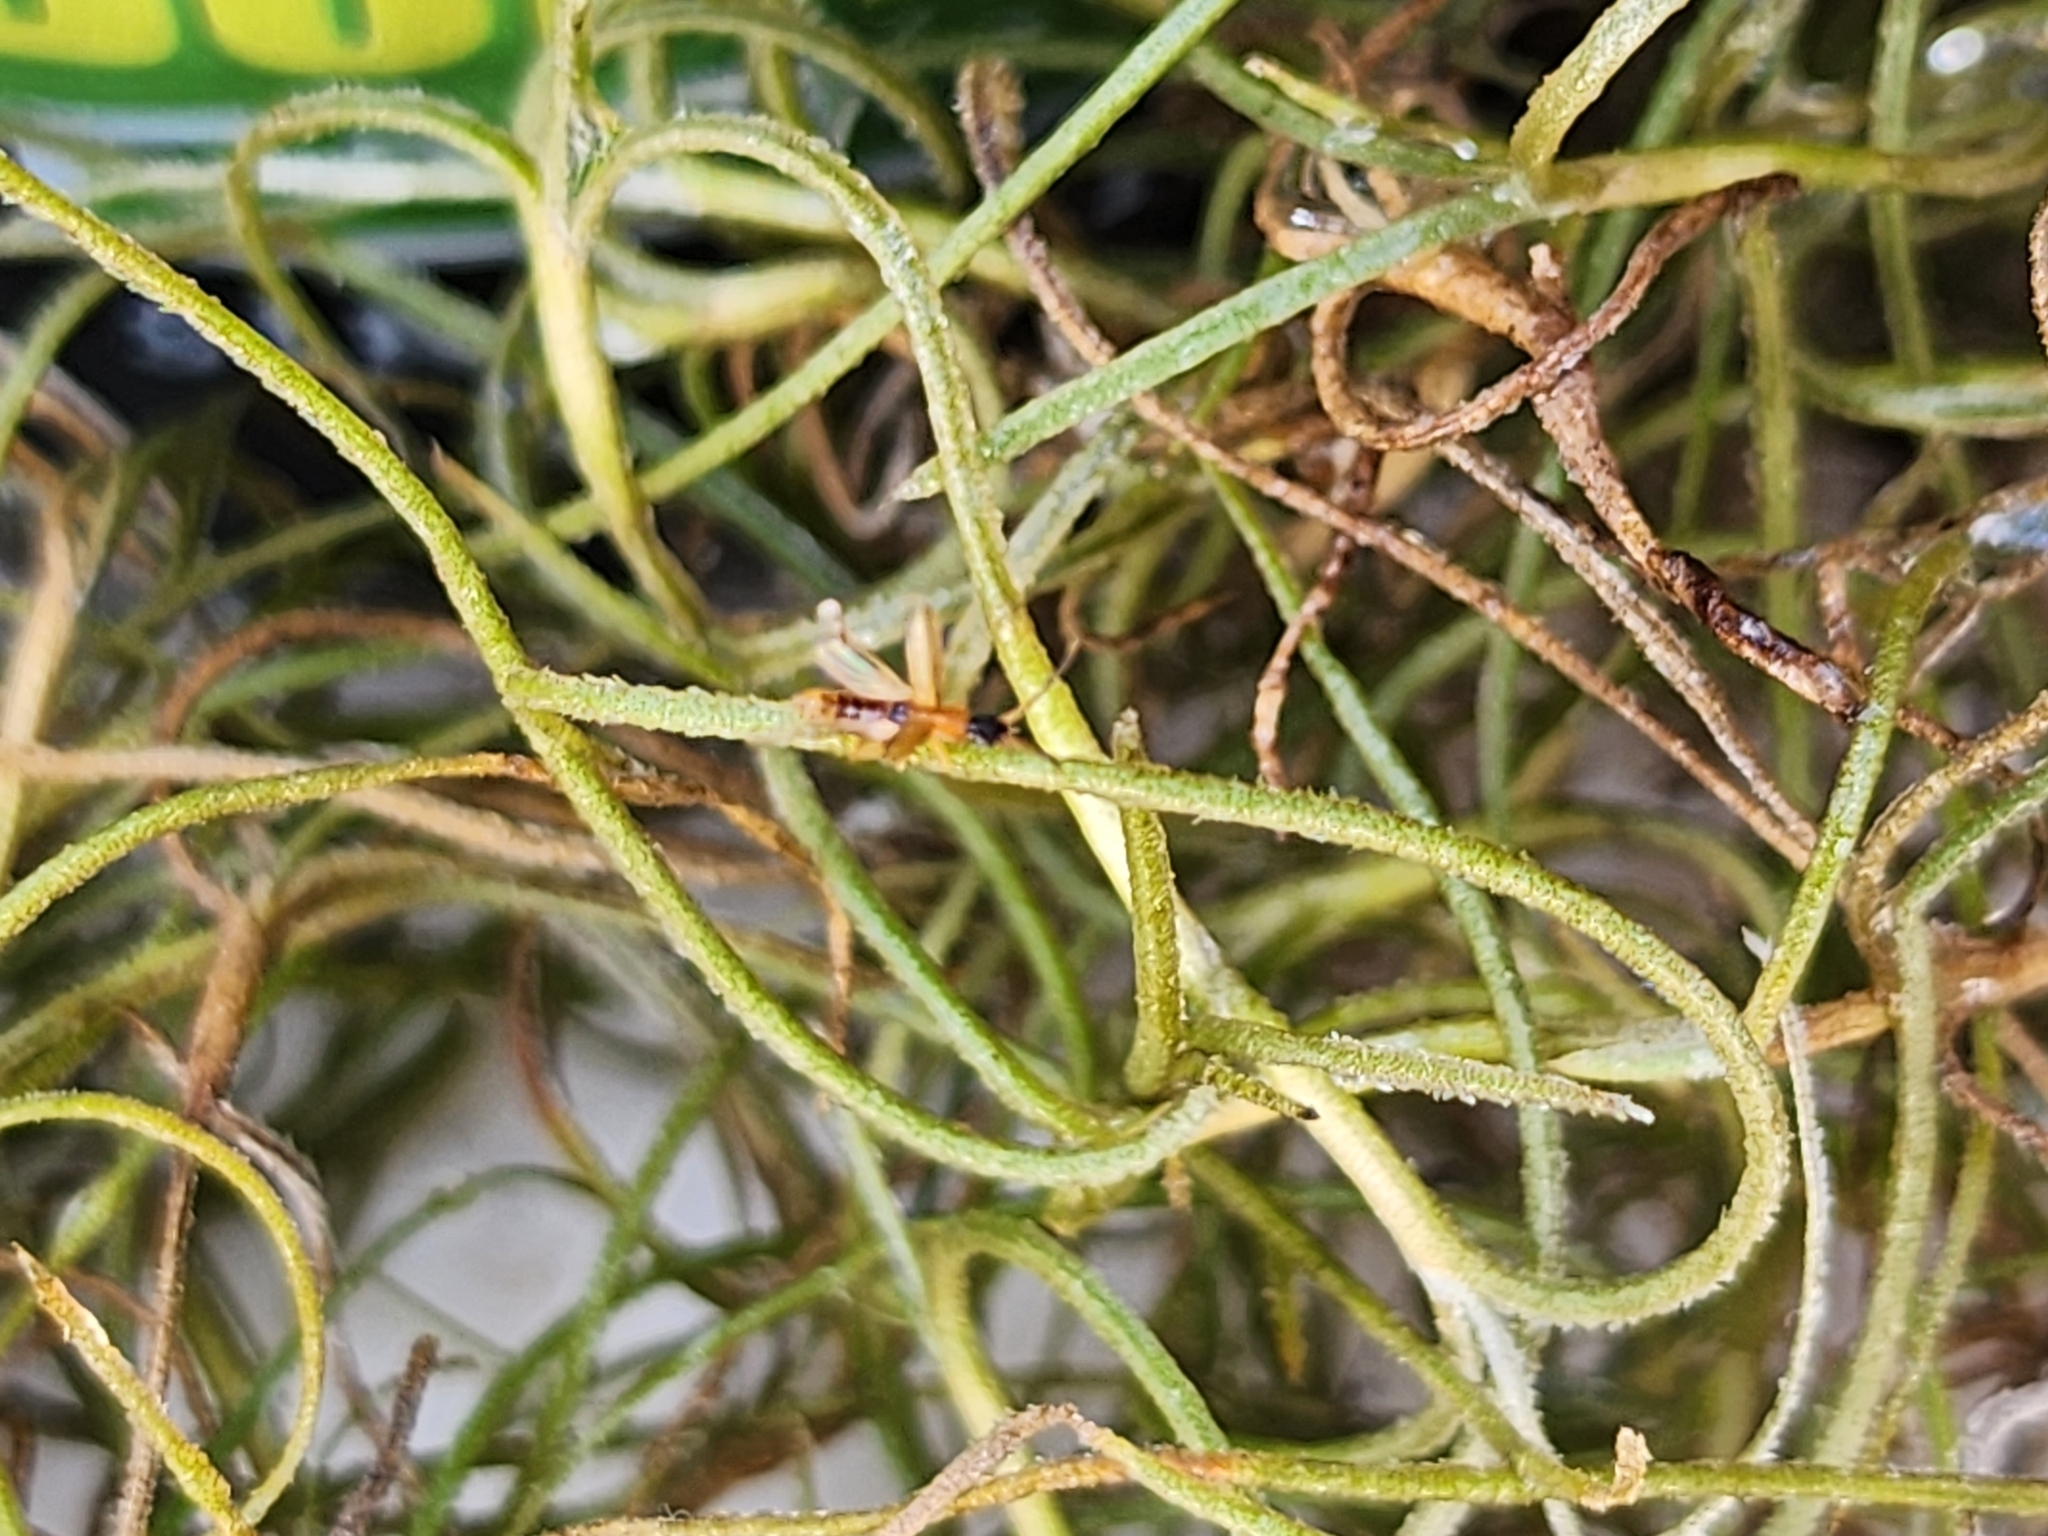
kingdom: Animalia
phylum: Arthropoda
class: Insecta
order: Coleoptera
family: Silvanidae
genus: Telephanus
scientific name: Telephanus velox
